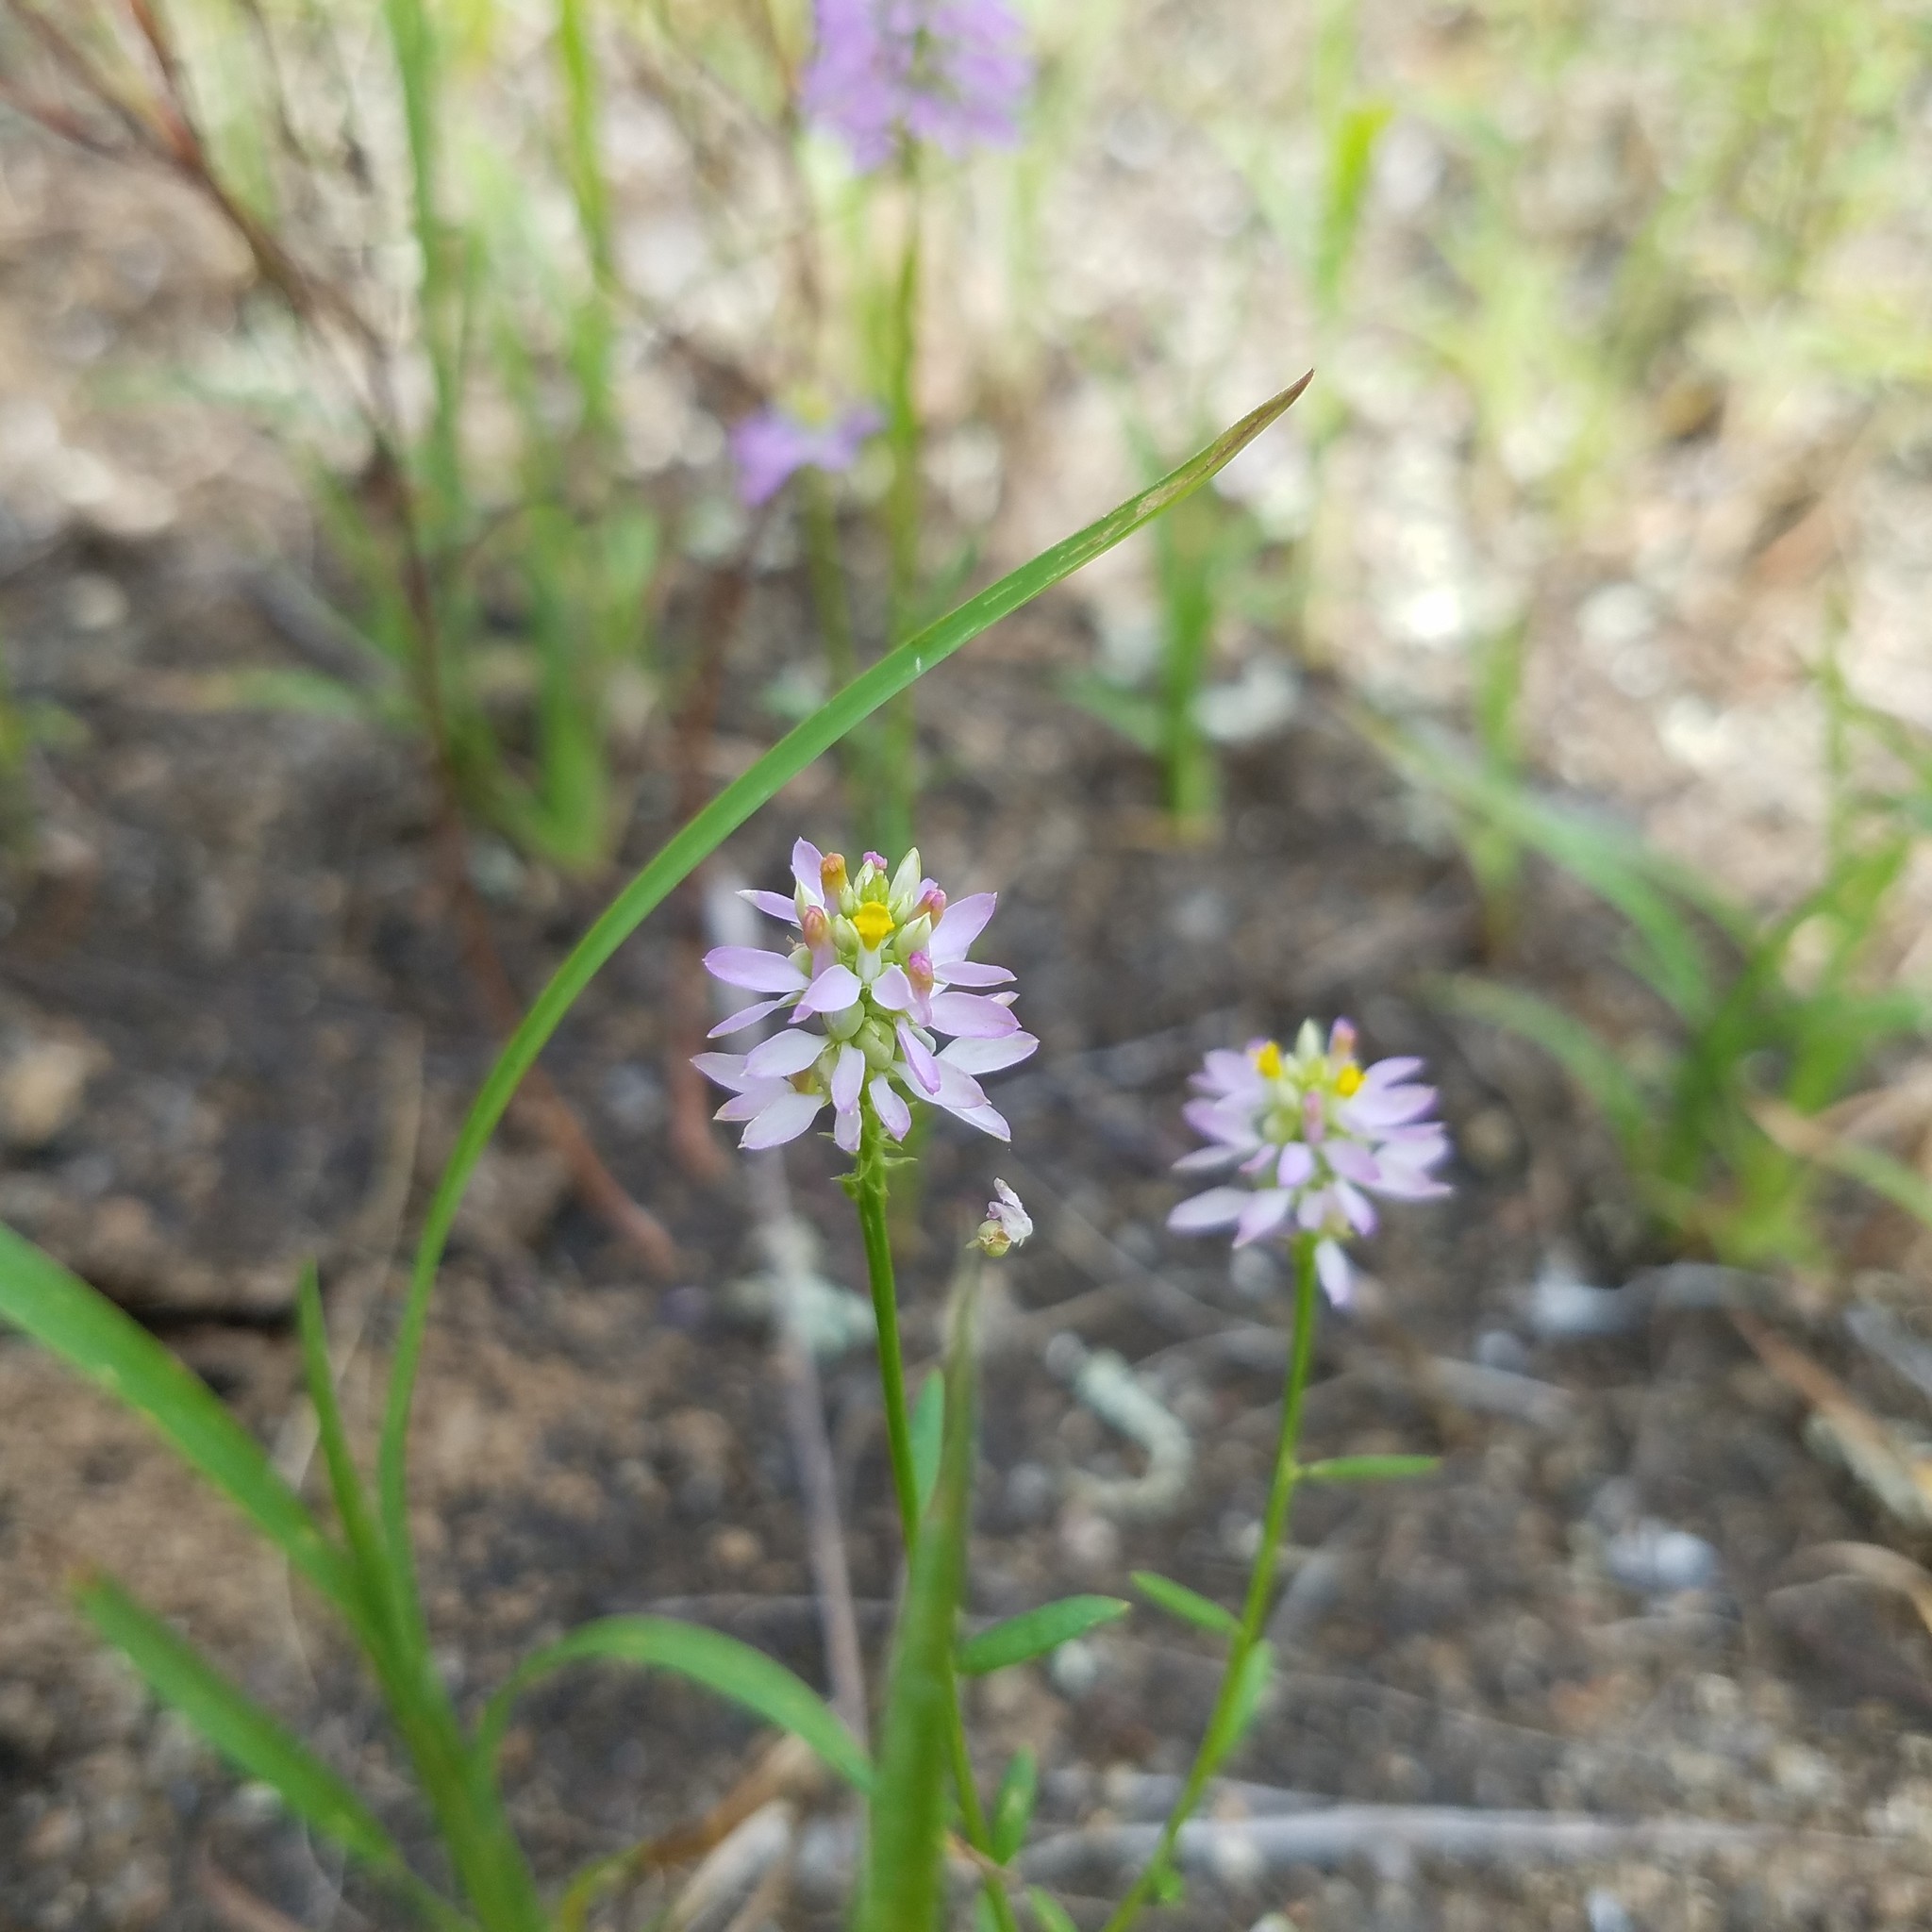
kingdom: Plantae
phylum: Tracheophyta
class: Magnoliopsida
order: Fabales
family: Polygalaceae
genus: Polygala
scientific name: Polygala curtissii
